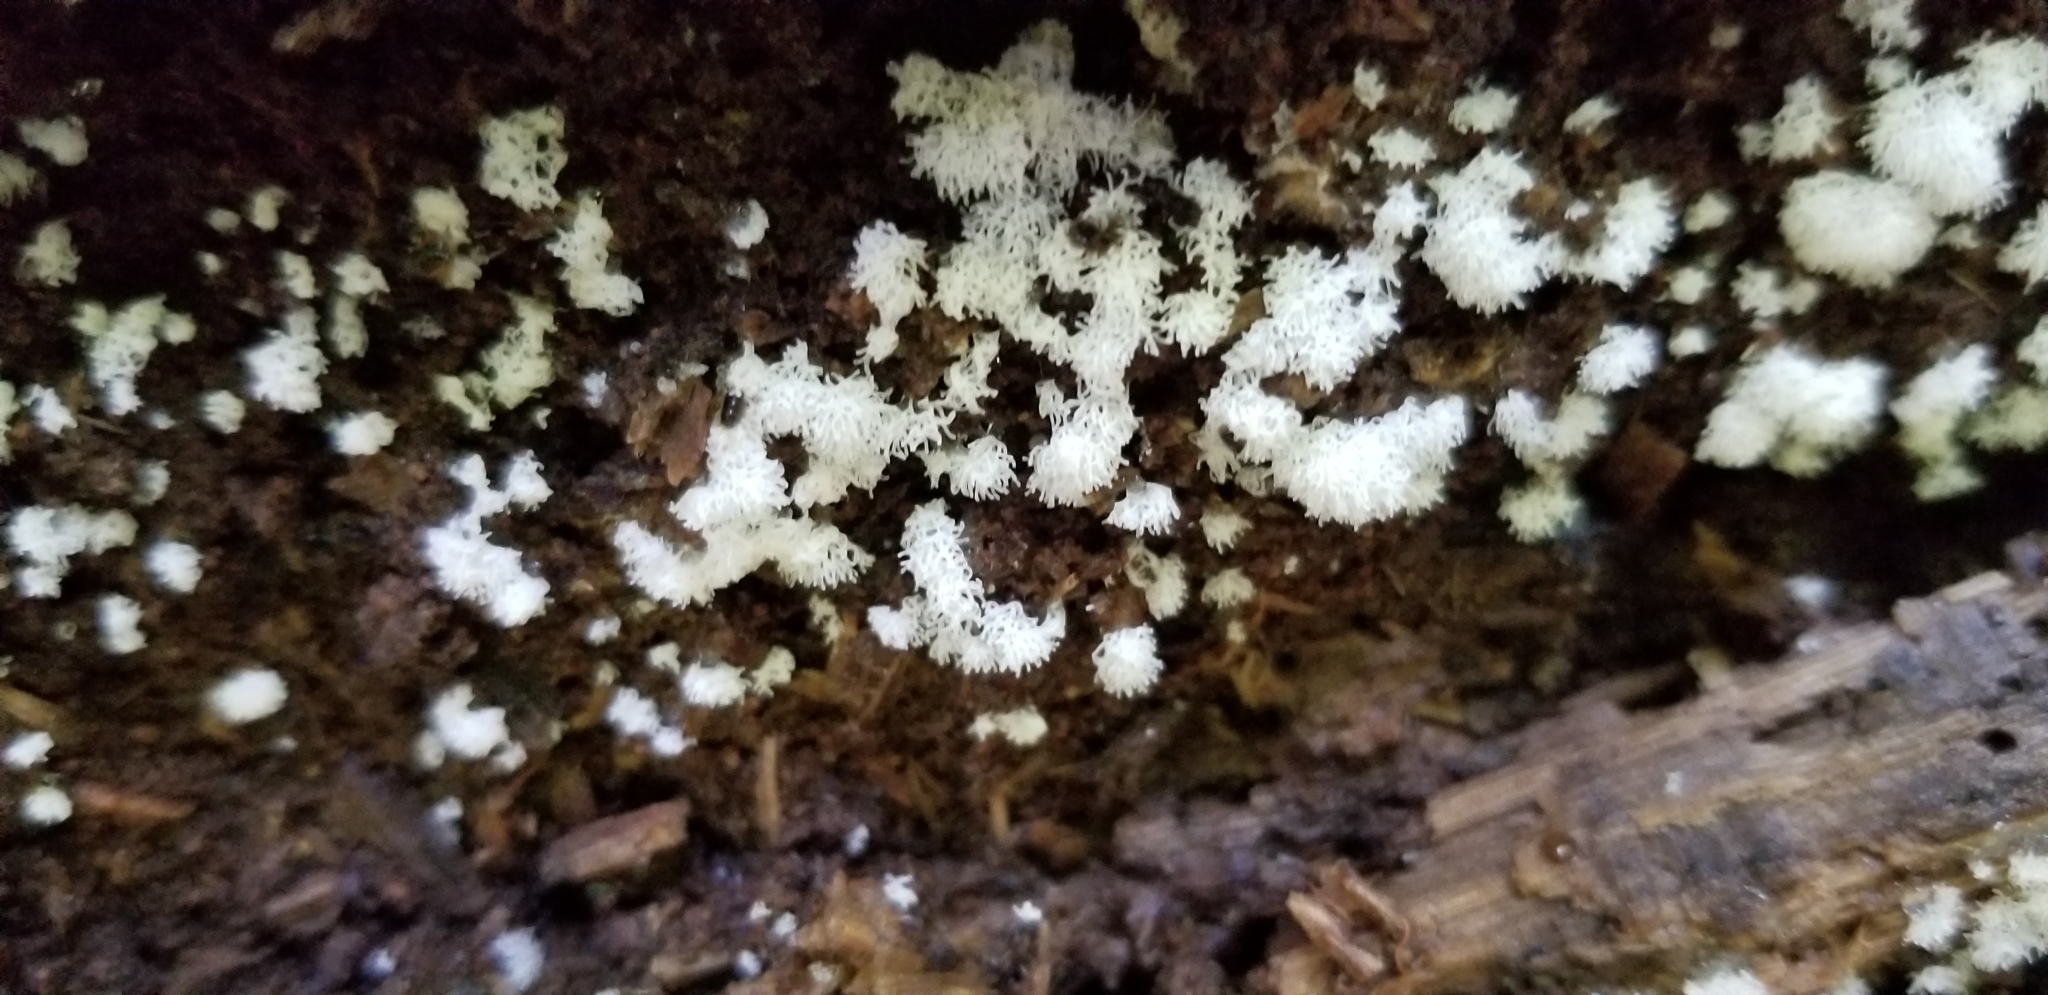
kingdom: Protozoa
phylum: Mycetozoa
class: Protosteliomycetes
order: Ceratiomyxales
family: Ceratiomyxaceae
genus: Ceratiomyxa
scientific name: Ceratiomyxa fruticulosa
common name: Honeycomb coral slime mold
